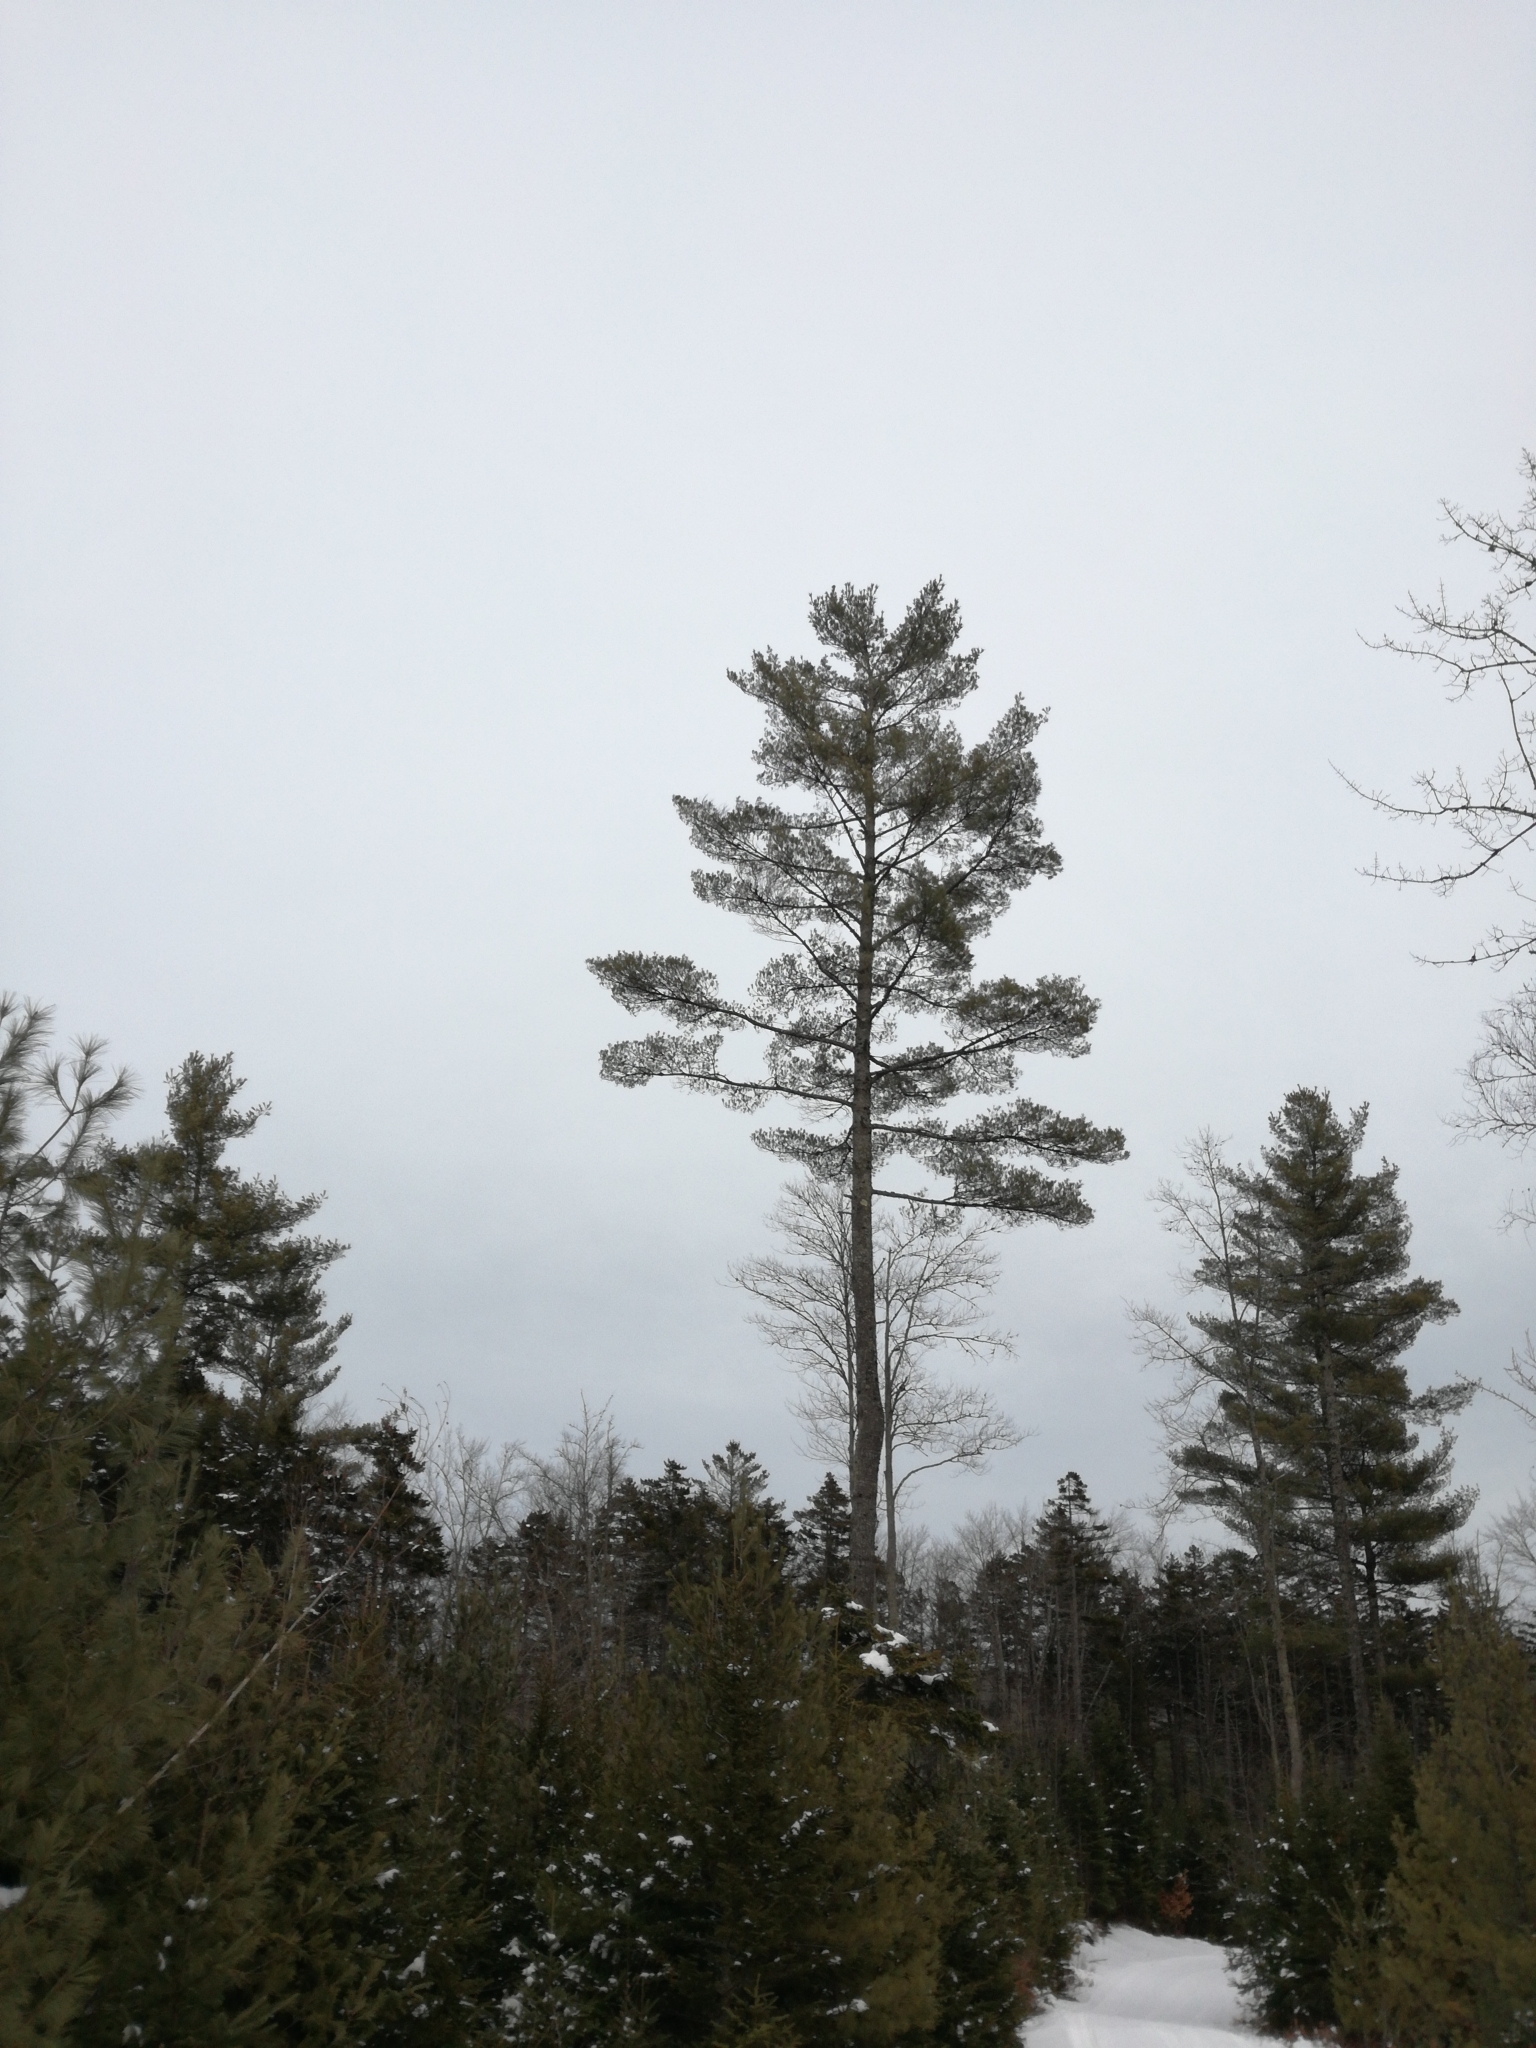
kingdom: Plantae
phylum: Tracheophyta
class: Pinopsida
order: Pinales
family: Pinaceae
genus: Pinus
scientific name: Pinus strobus
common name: Weymouth pine
